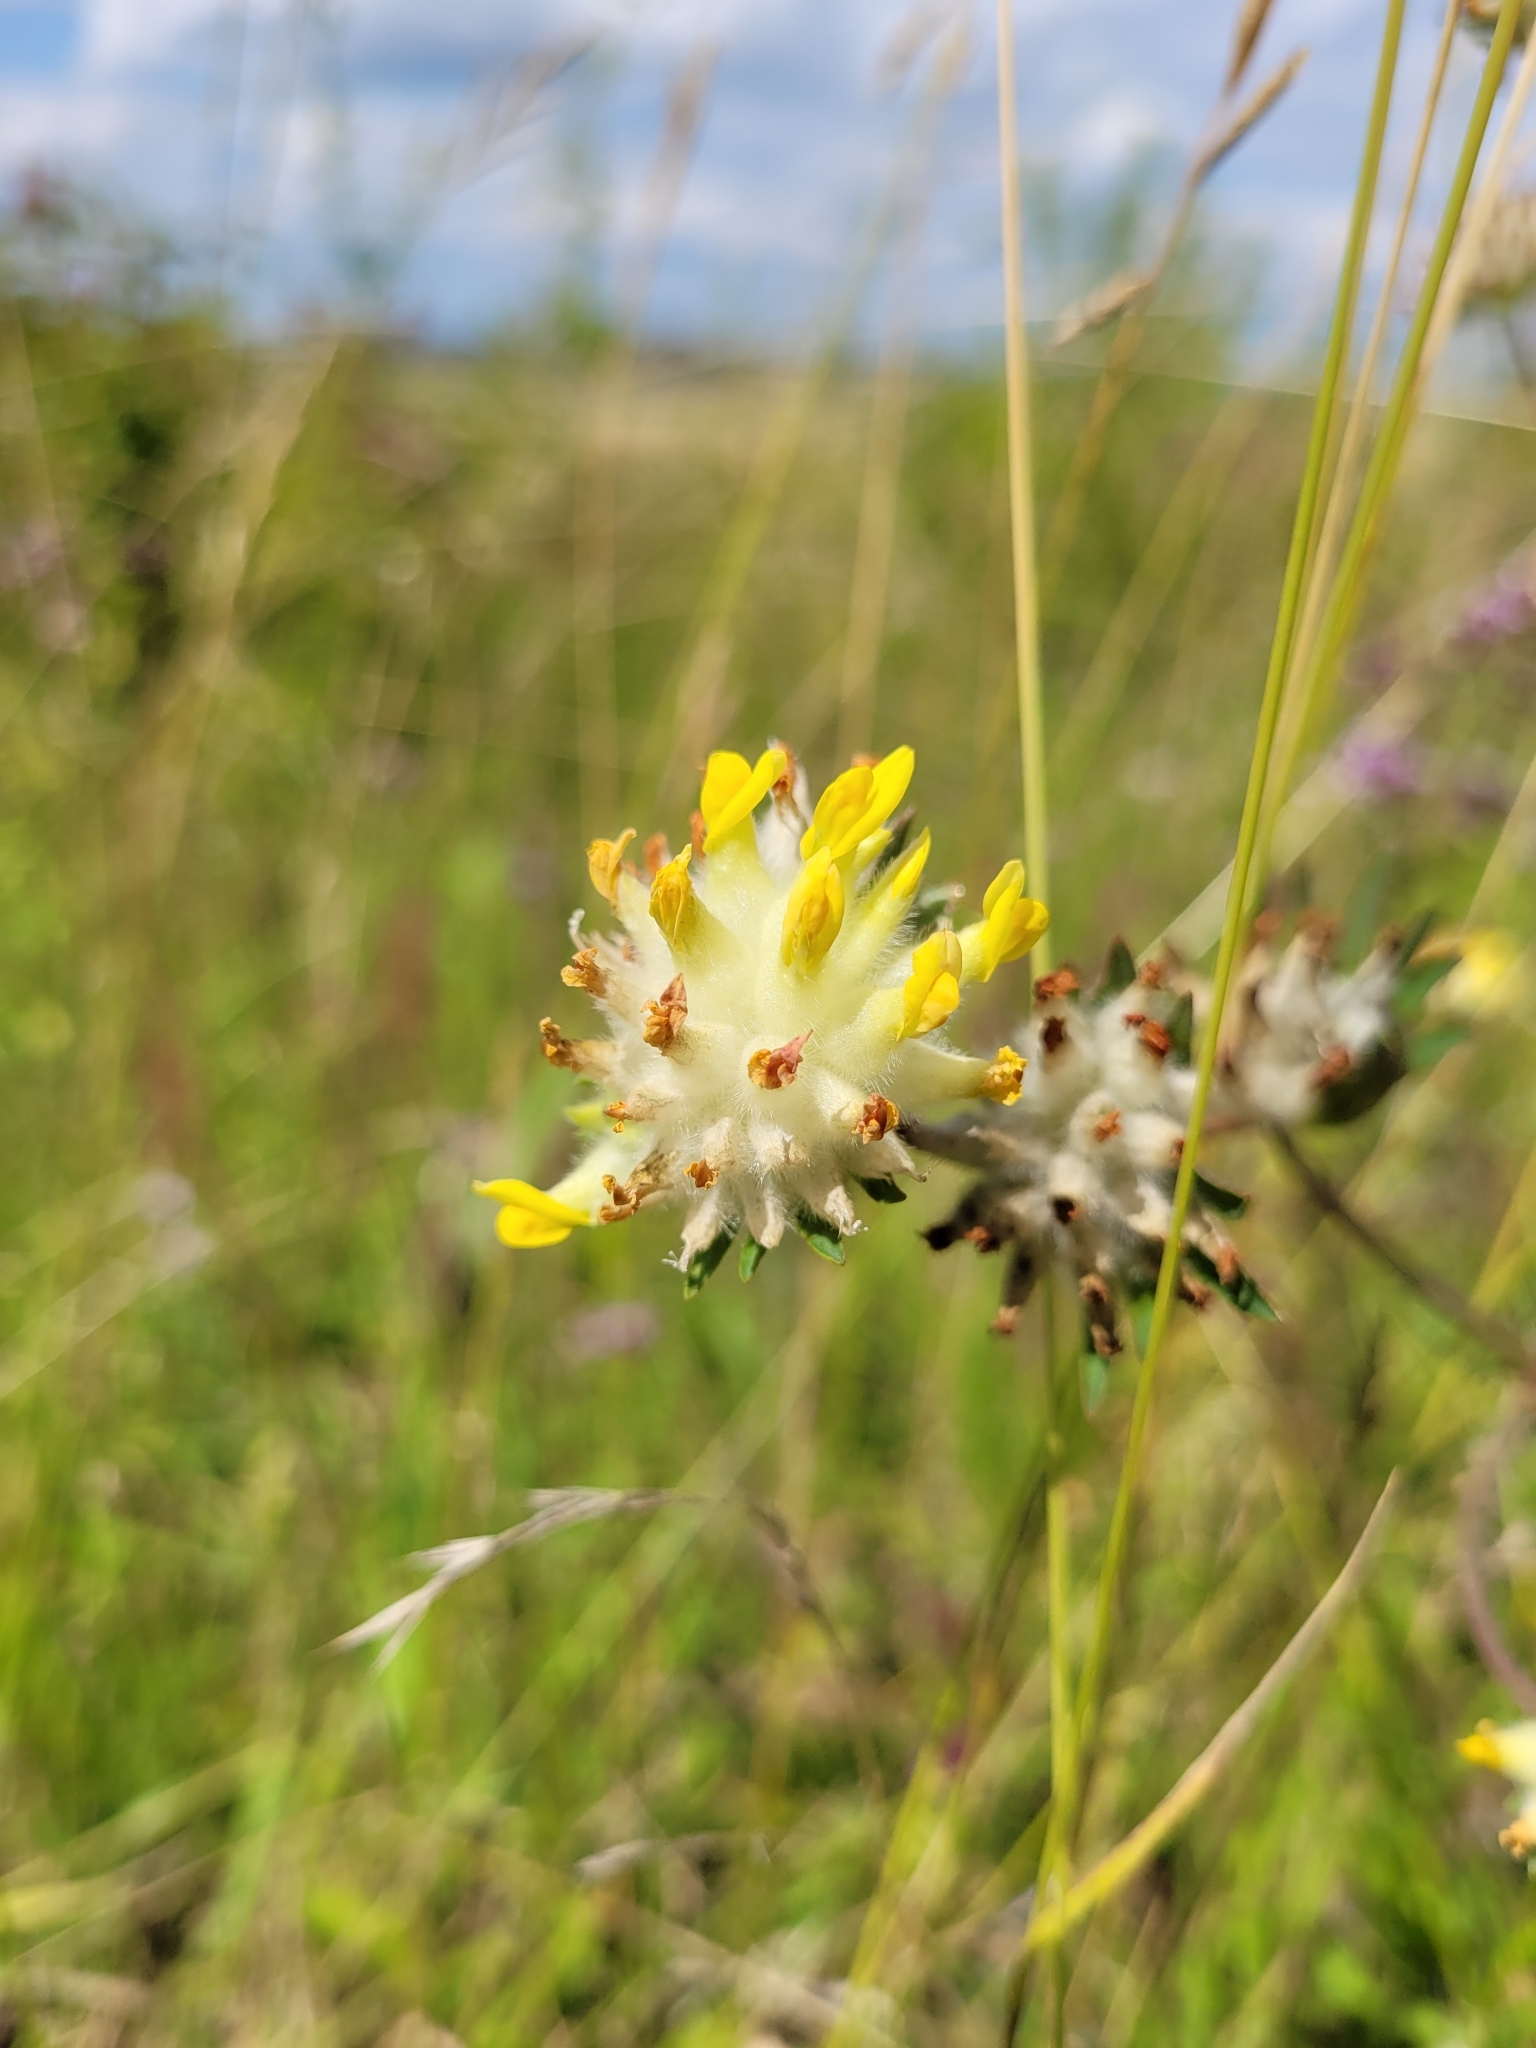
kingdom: Plantae
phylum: Tracheophyta
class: Magnoliopsida
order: Fabales
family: Fabaceae
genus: Anthyllis
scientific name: Anthyllis vulneraria
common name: Kidney vetch
